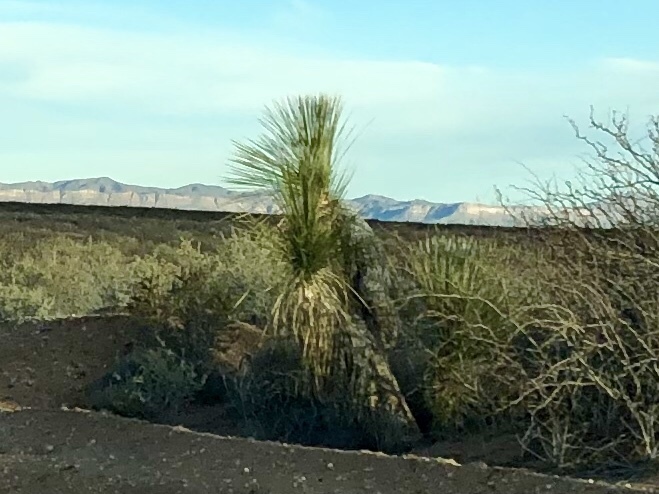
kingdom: Plantae
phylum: Tracheophyta
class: Liliopsida
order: Asparagales
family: Asparagaceae
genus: Yucca
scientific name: Yucca elata
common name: Palmella
